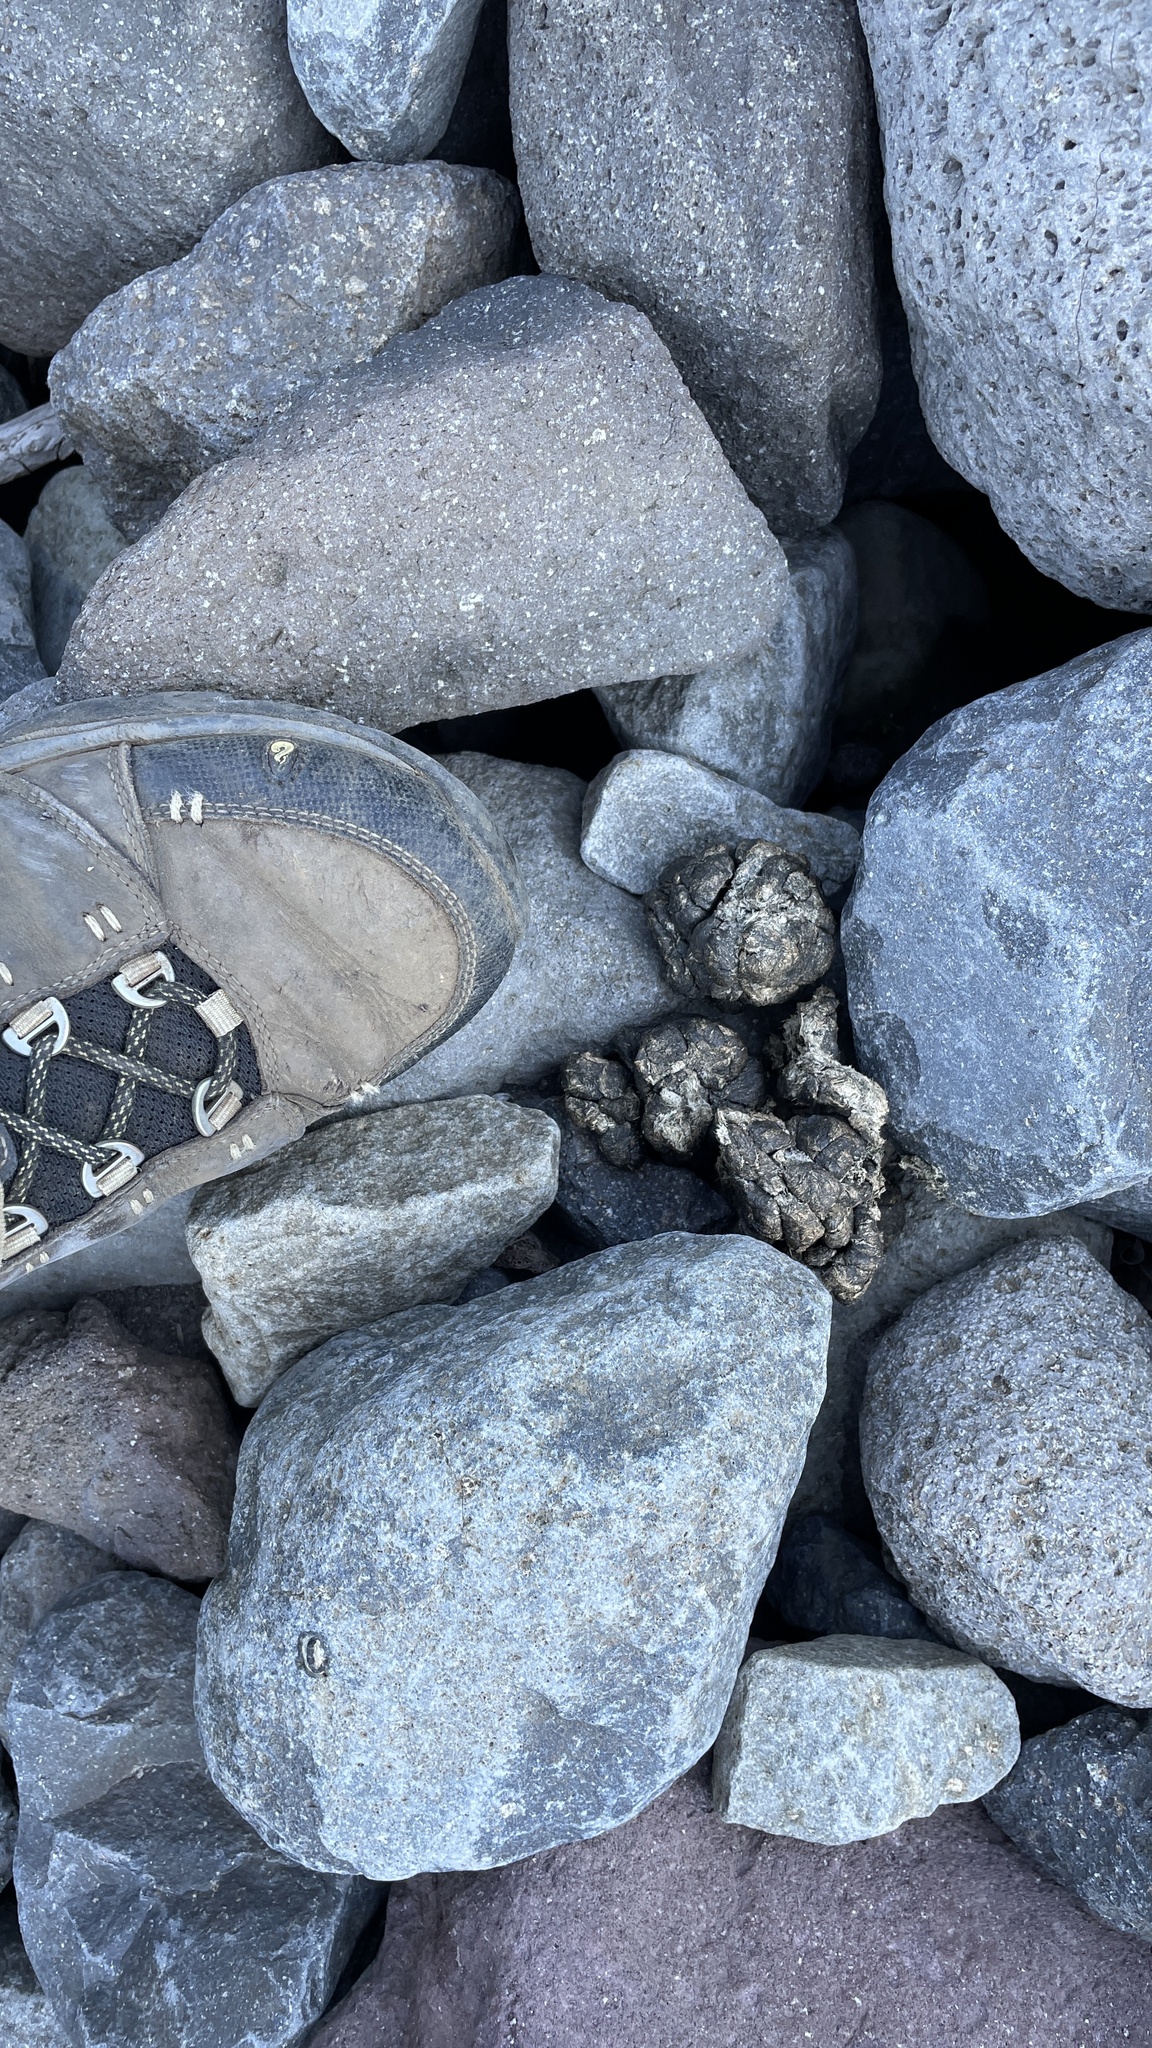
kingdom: Animalia
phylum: Chordata
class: Mammalia
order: Artiodactyla
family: Bovidae
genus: Oreamnos
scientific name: Oreamnos americanus
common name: Mountain goat
